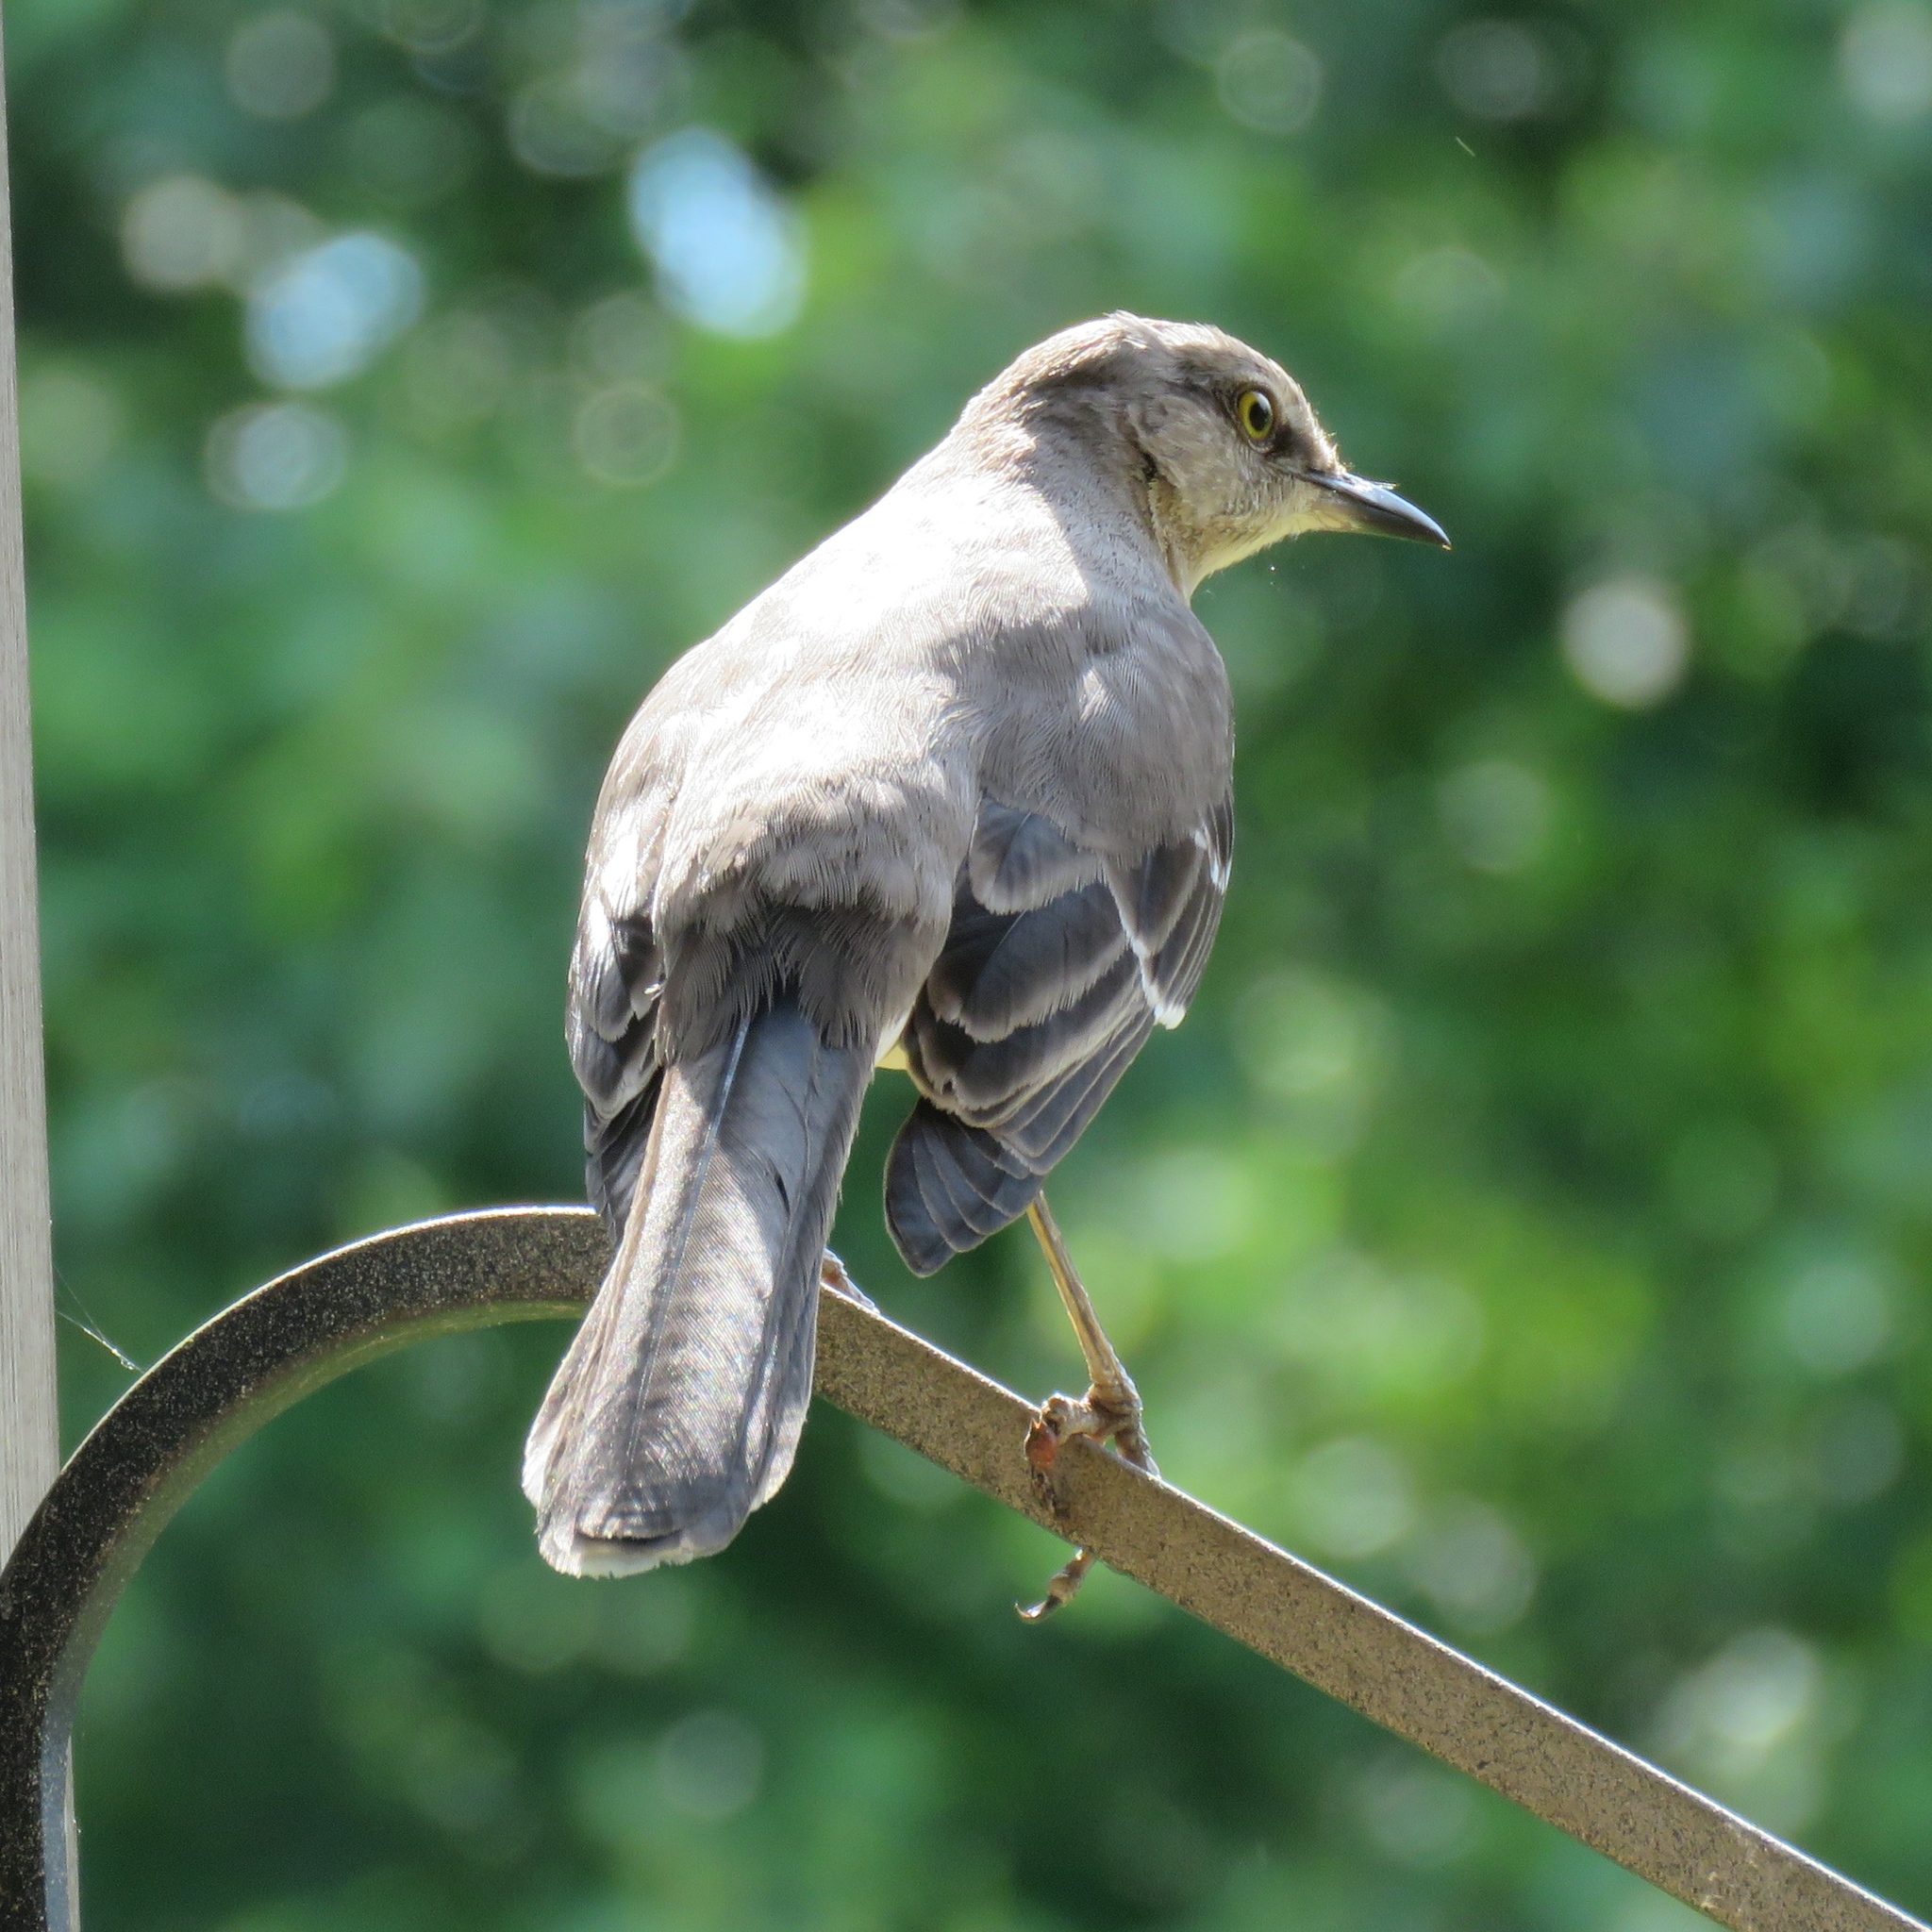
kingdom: Animalia
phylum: Chordata
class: Aves
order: Passeriformes
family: Mimidae
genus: Mimus
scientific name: Mimus polyglottos
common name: Northern mockingbird
